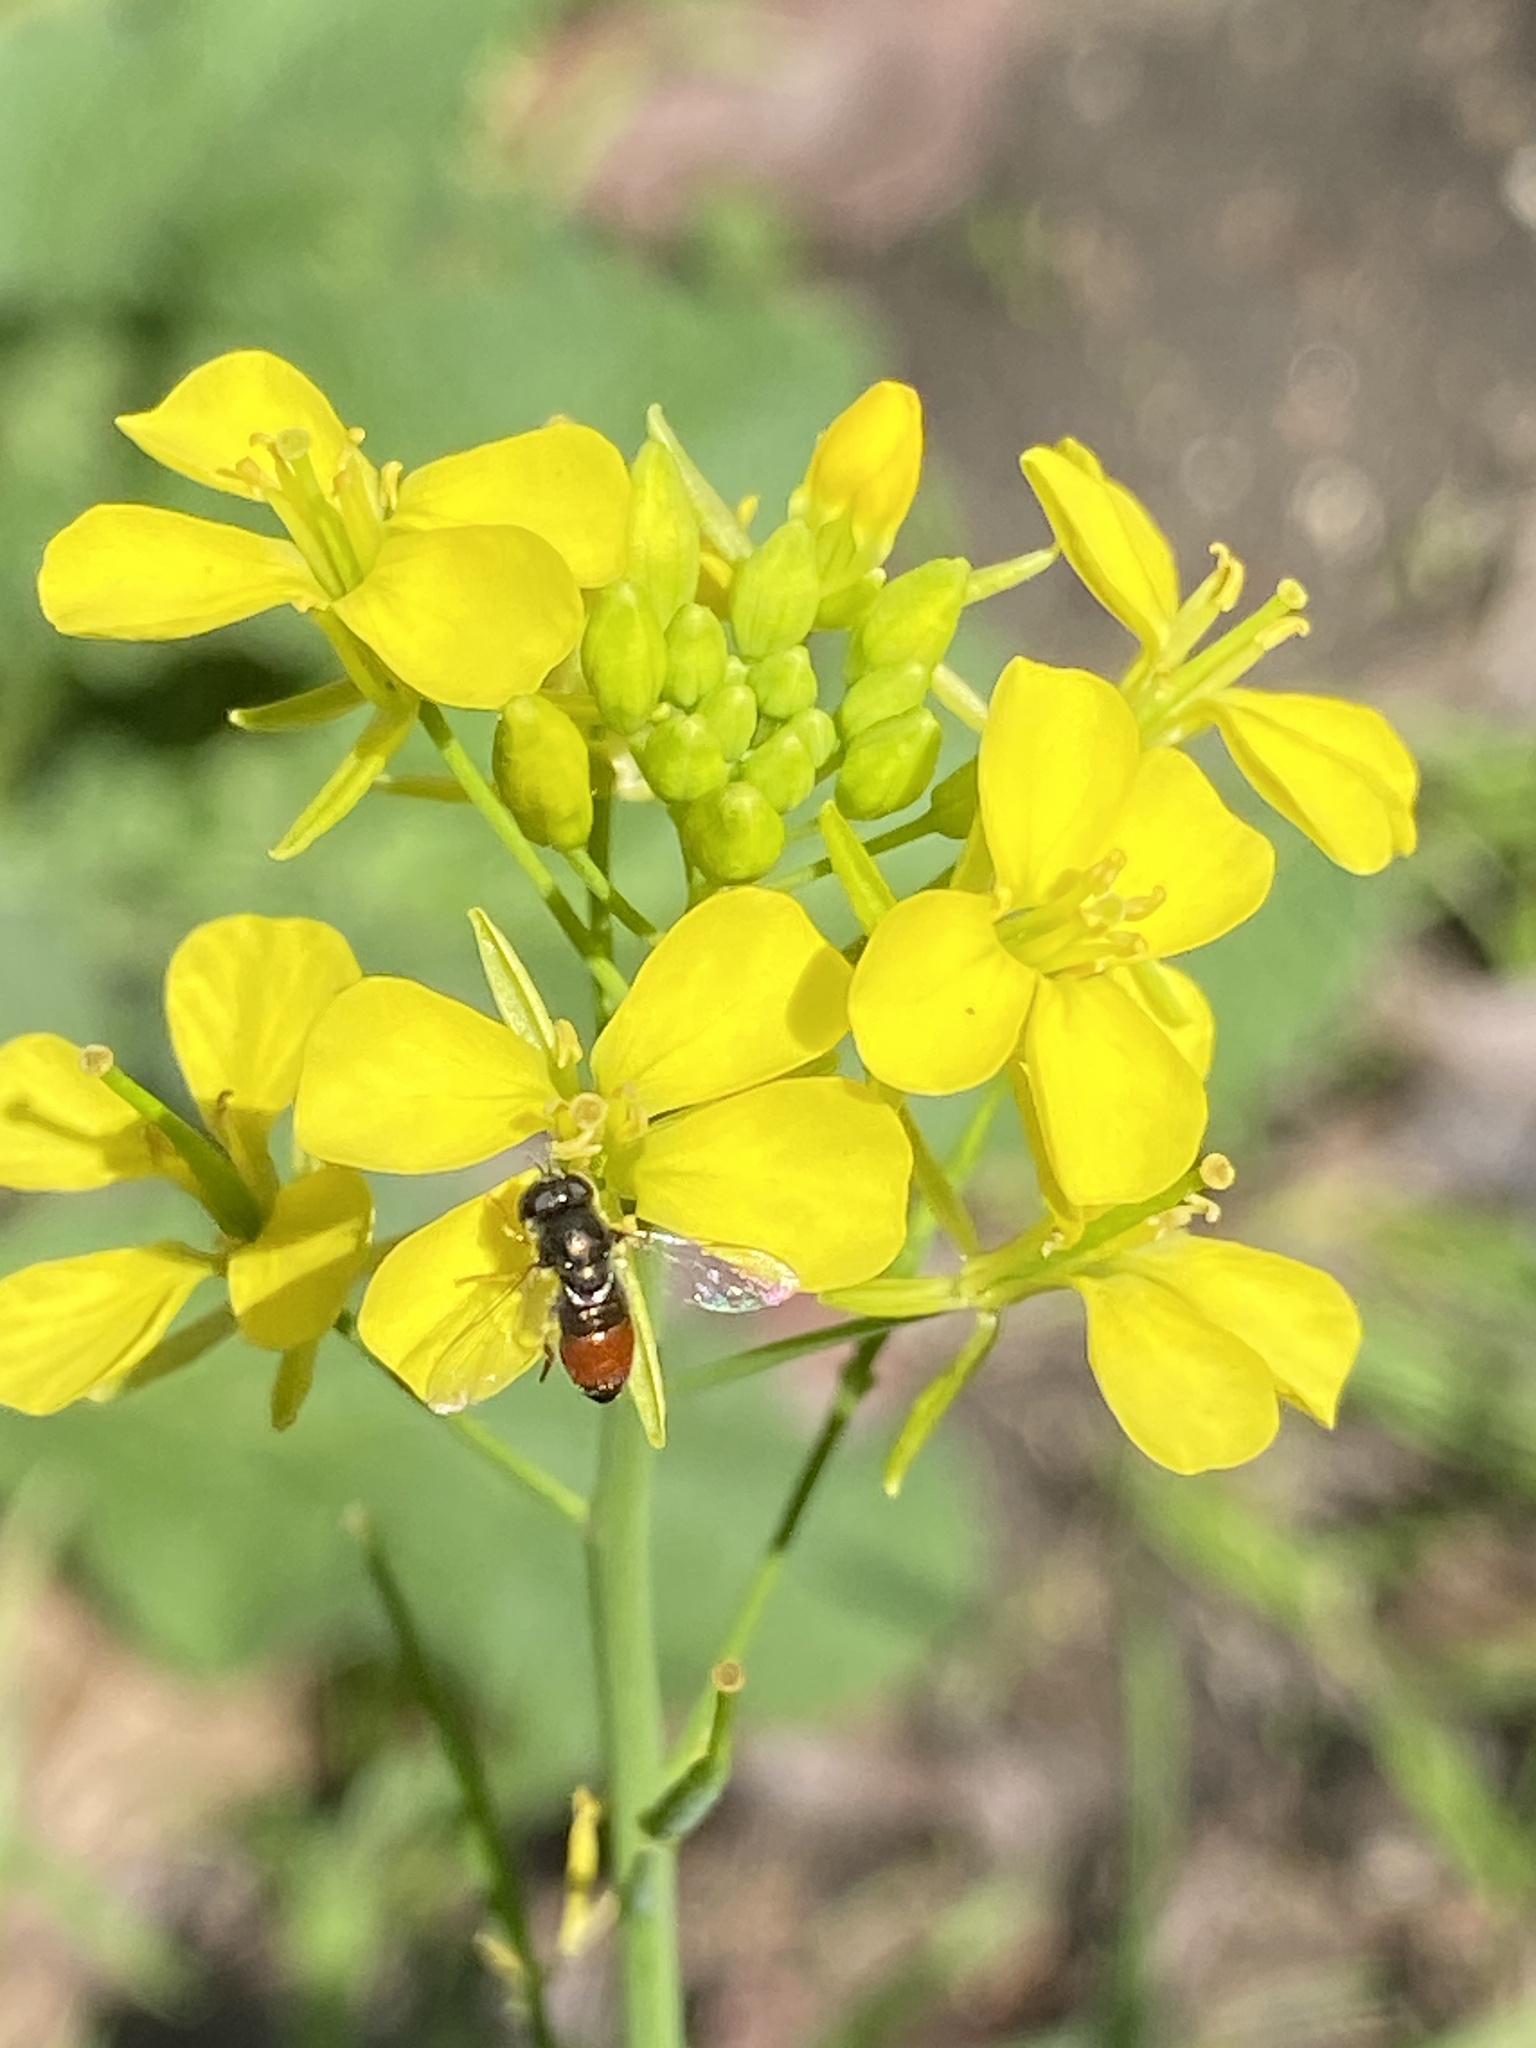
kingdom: Animalia
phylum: Arthropoda
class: Insecta
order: Diptera
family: Syrphidae
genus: Paragus
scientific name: Paragus haemorrhous
